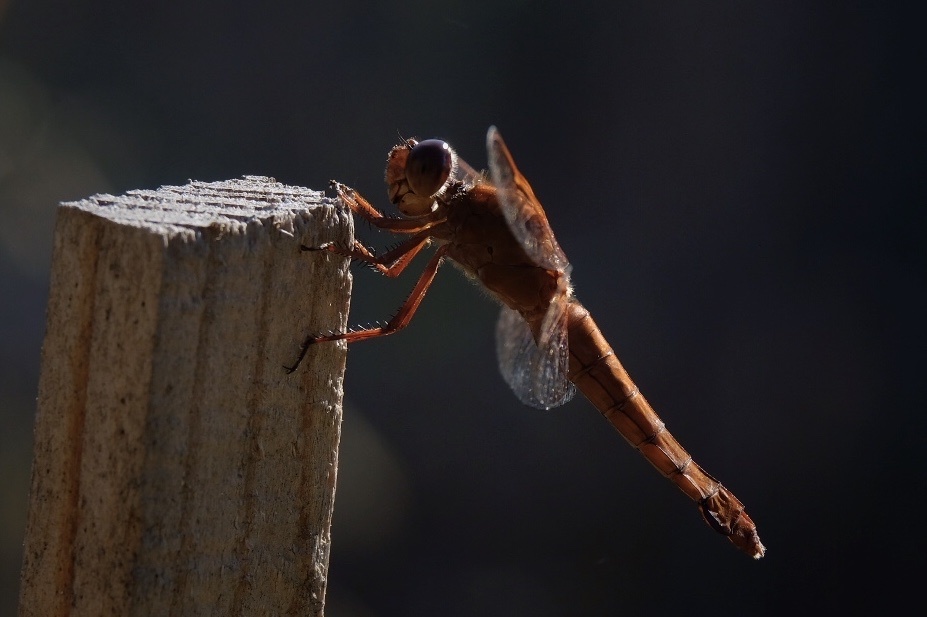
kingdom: Animalia
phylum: Arthropoda
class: Insecta
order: Odonata
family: Libellulidae
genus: Libellula
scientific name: Libellula saturata
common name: Flame skimmer
